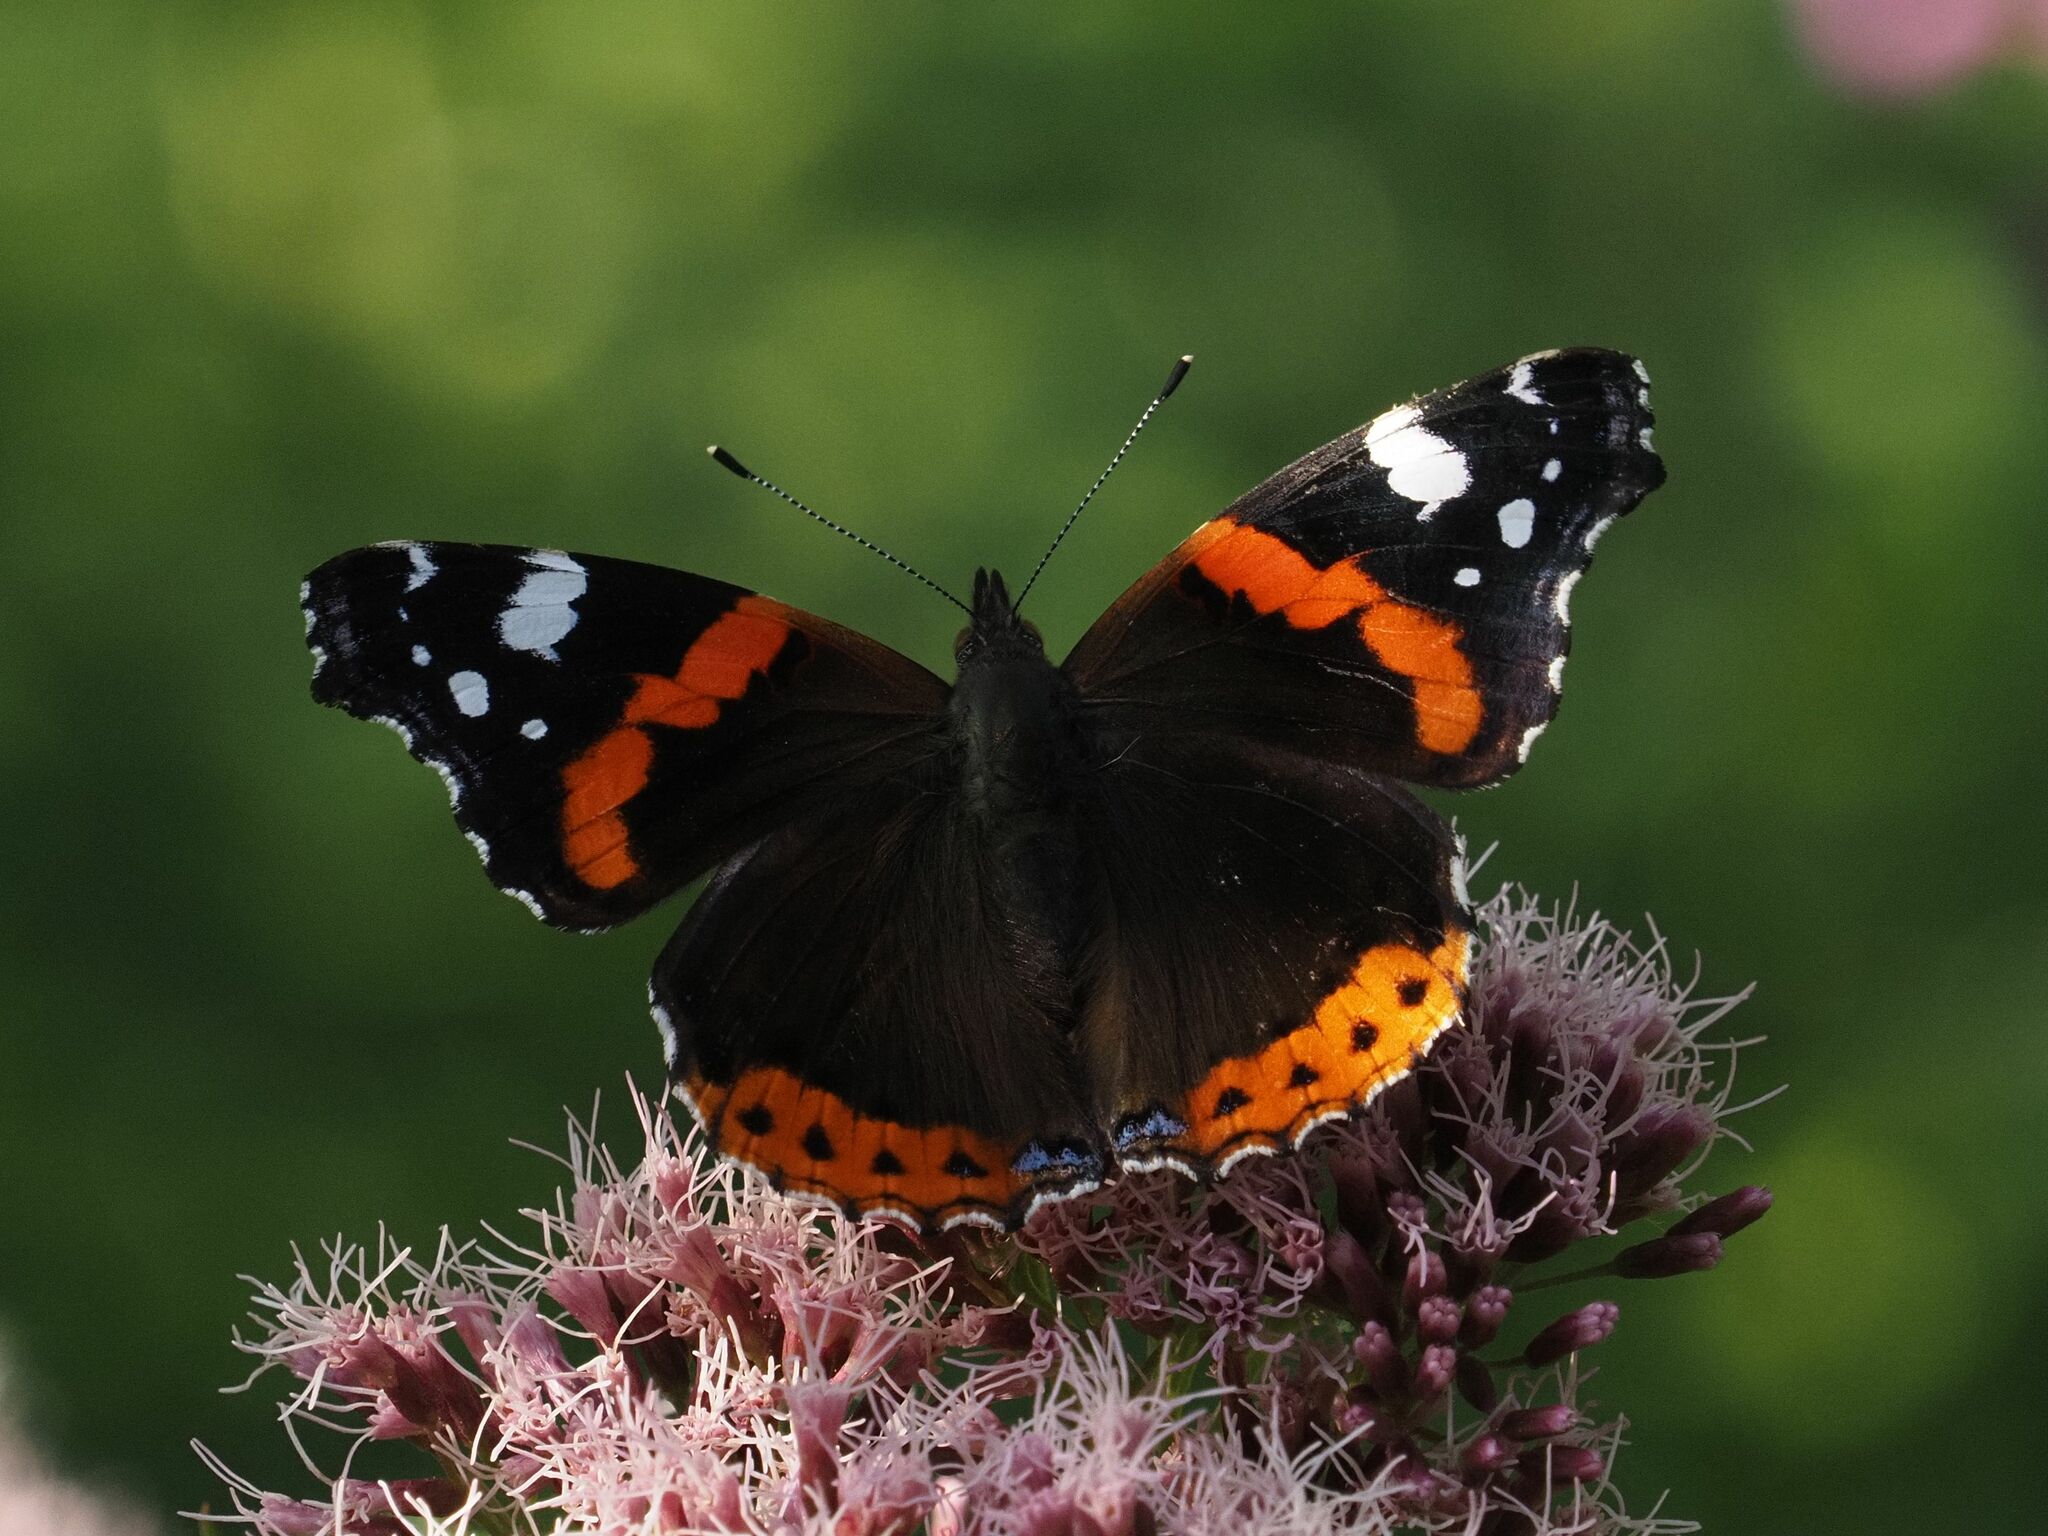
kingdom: Animalia
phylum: Arthropoda
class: Insecta
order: Lepidoptera
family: Nymphalidae
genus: Vanessa
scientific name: Vanessa atalanta
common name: Red admiral
